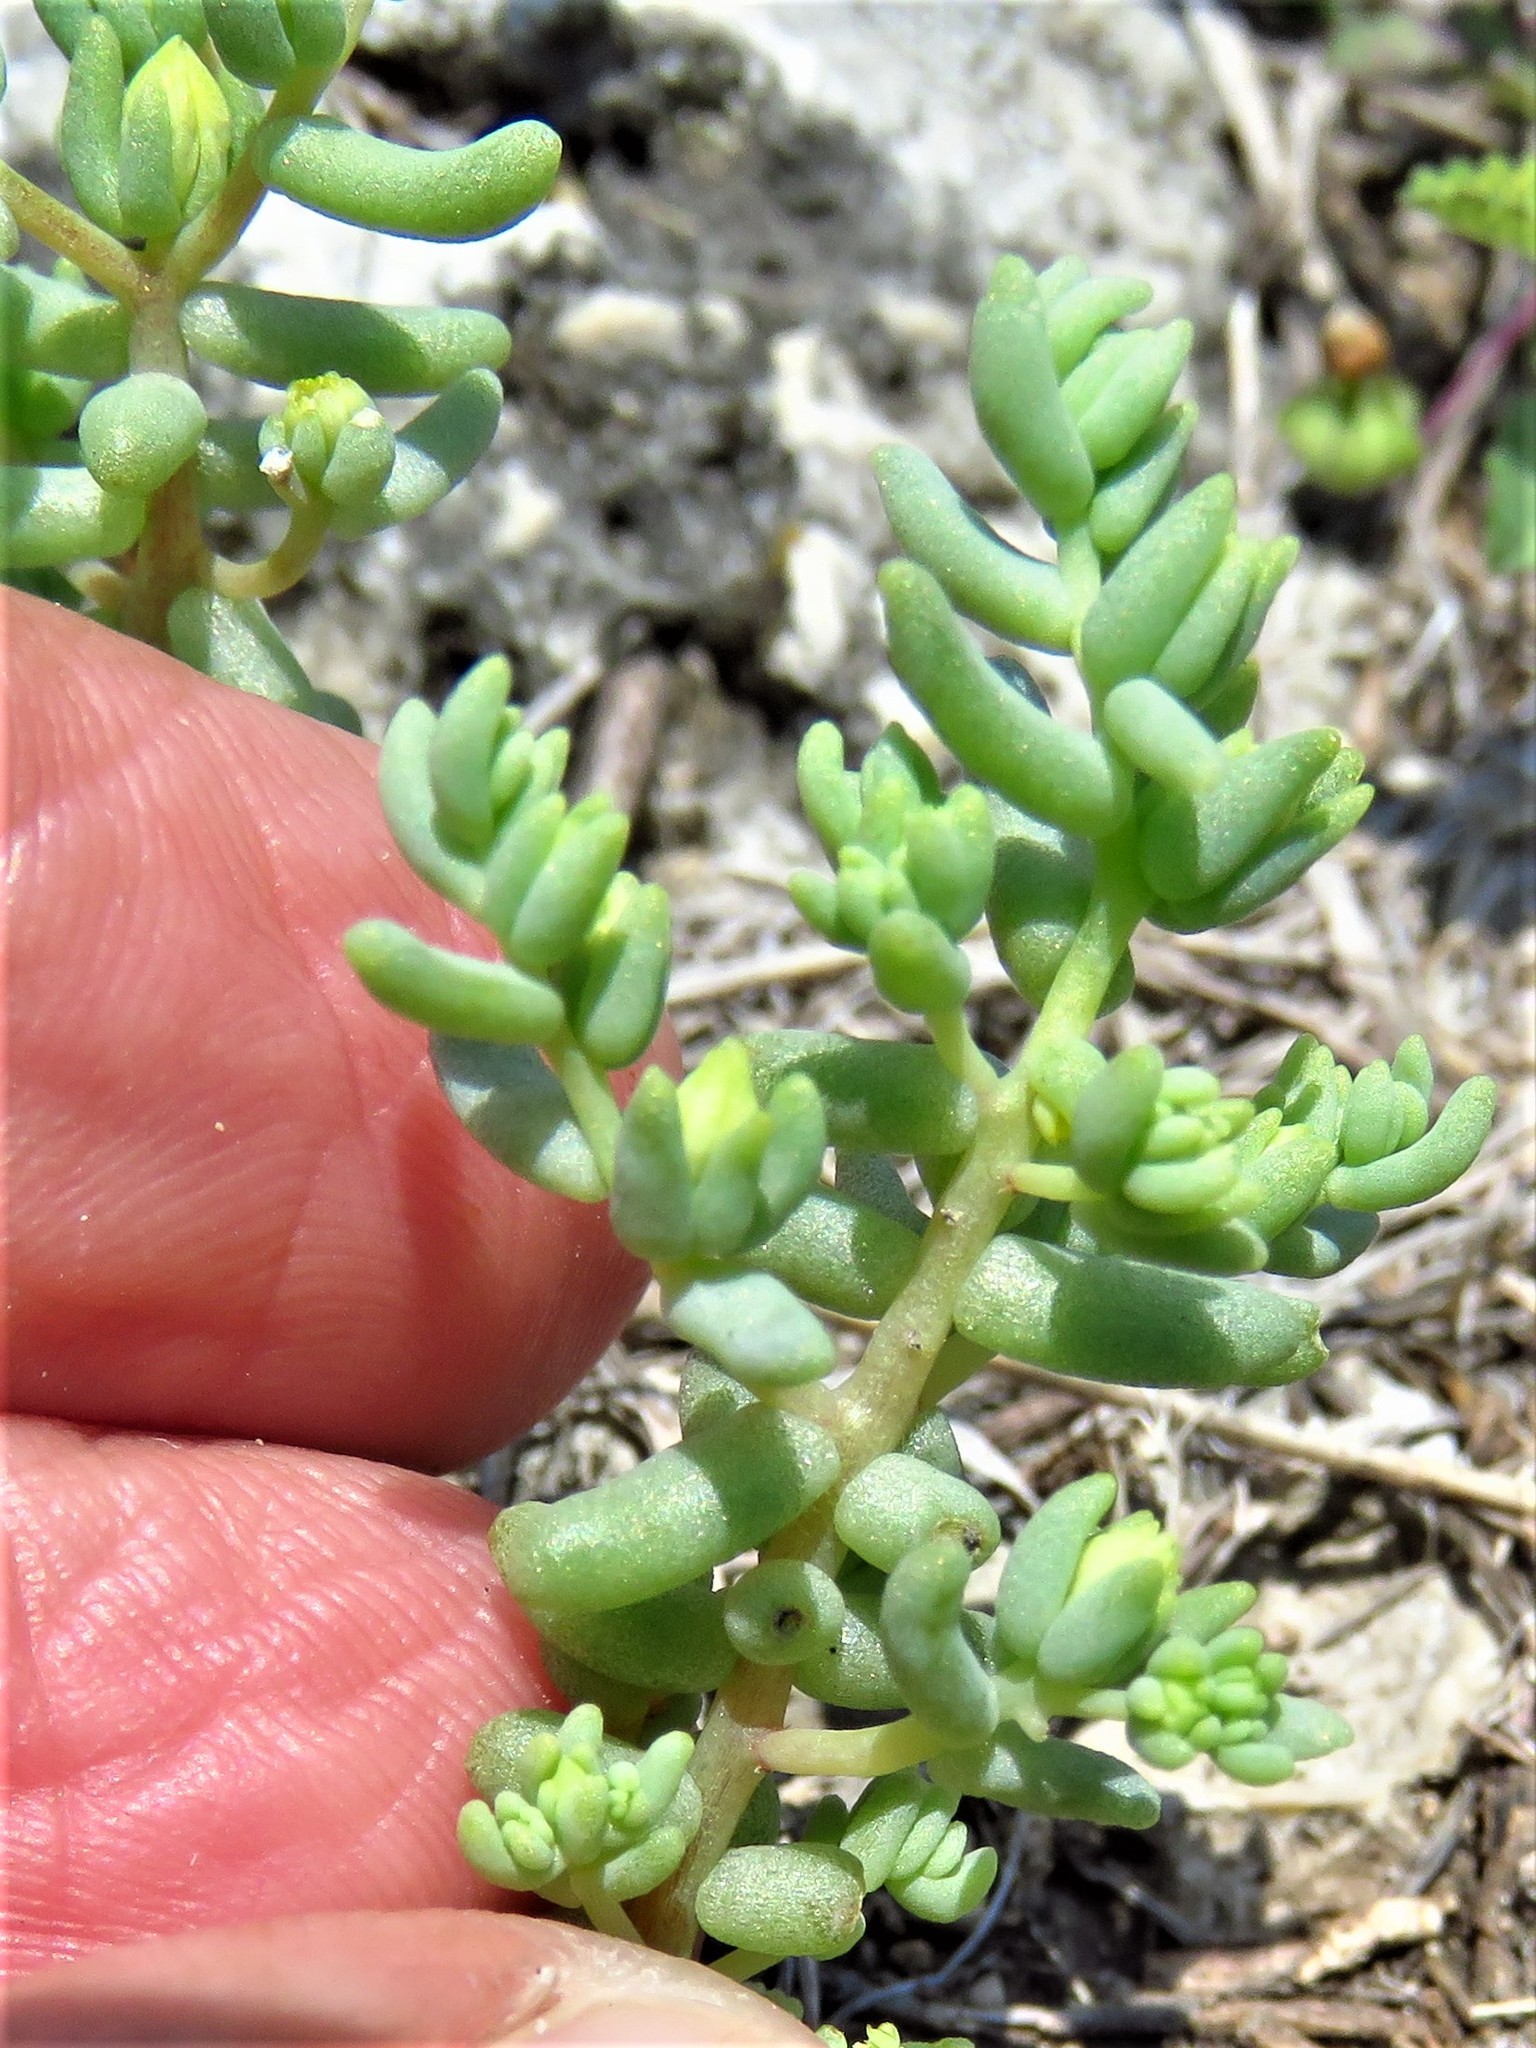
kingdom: Plantae
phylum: Tracheophyta
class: Magnoliopsida
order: Saxifragales
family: Crassulaceae
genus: Sedum
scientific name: Sedum nuttallii
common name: Yellow stonecrop
